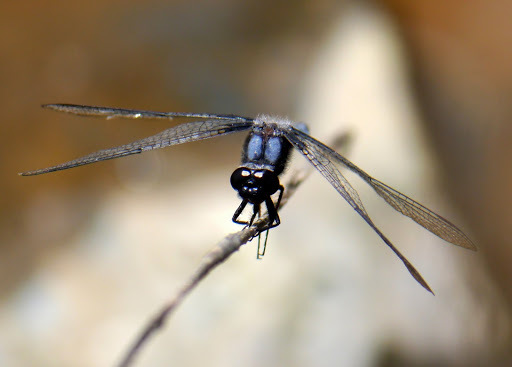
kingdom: Animalia
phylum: Arthropoda
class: Insecta
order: Odonata
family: Libellulidae
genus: Ladona
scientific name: Ladona deplanata
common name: Blue corporal
